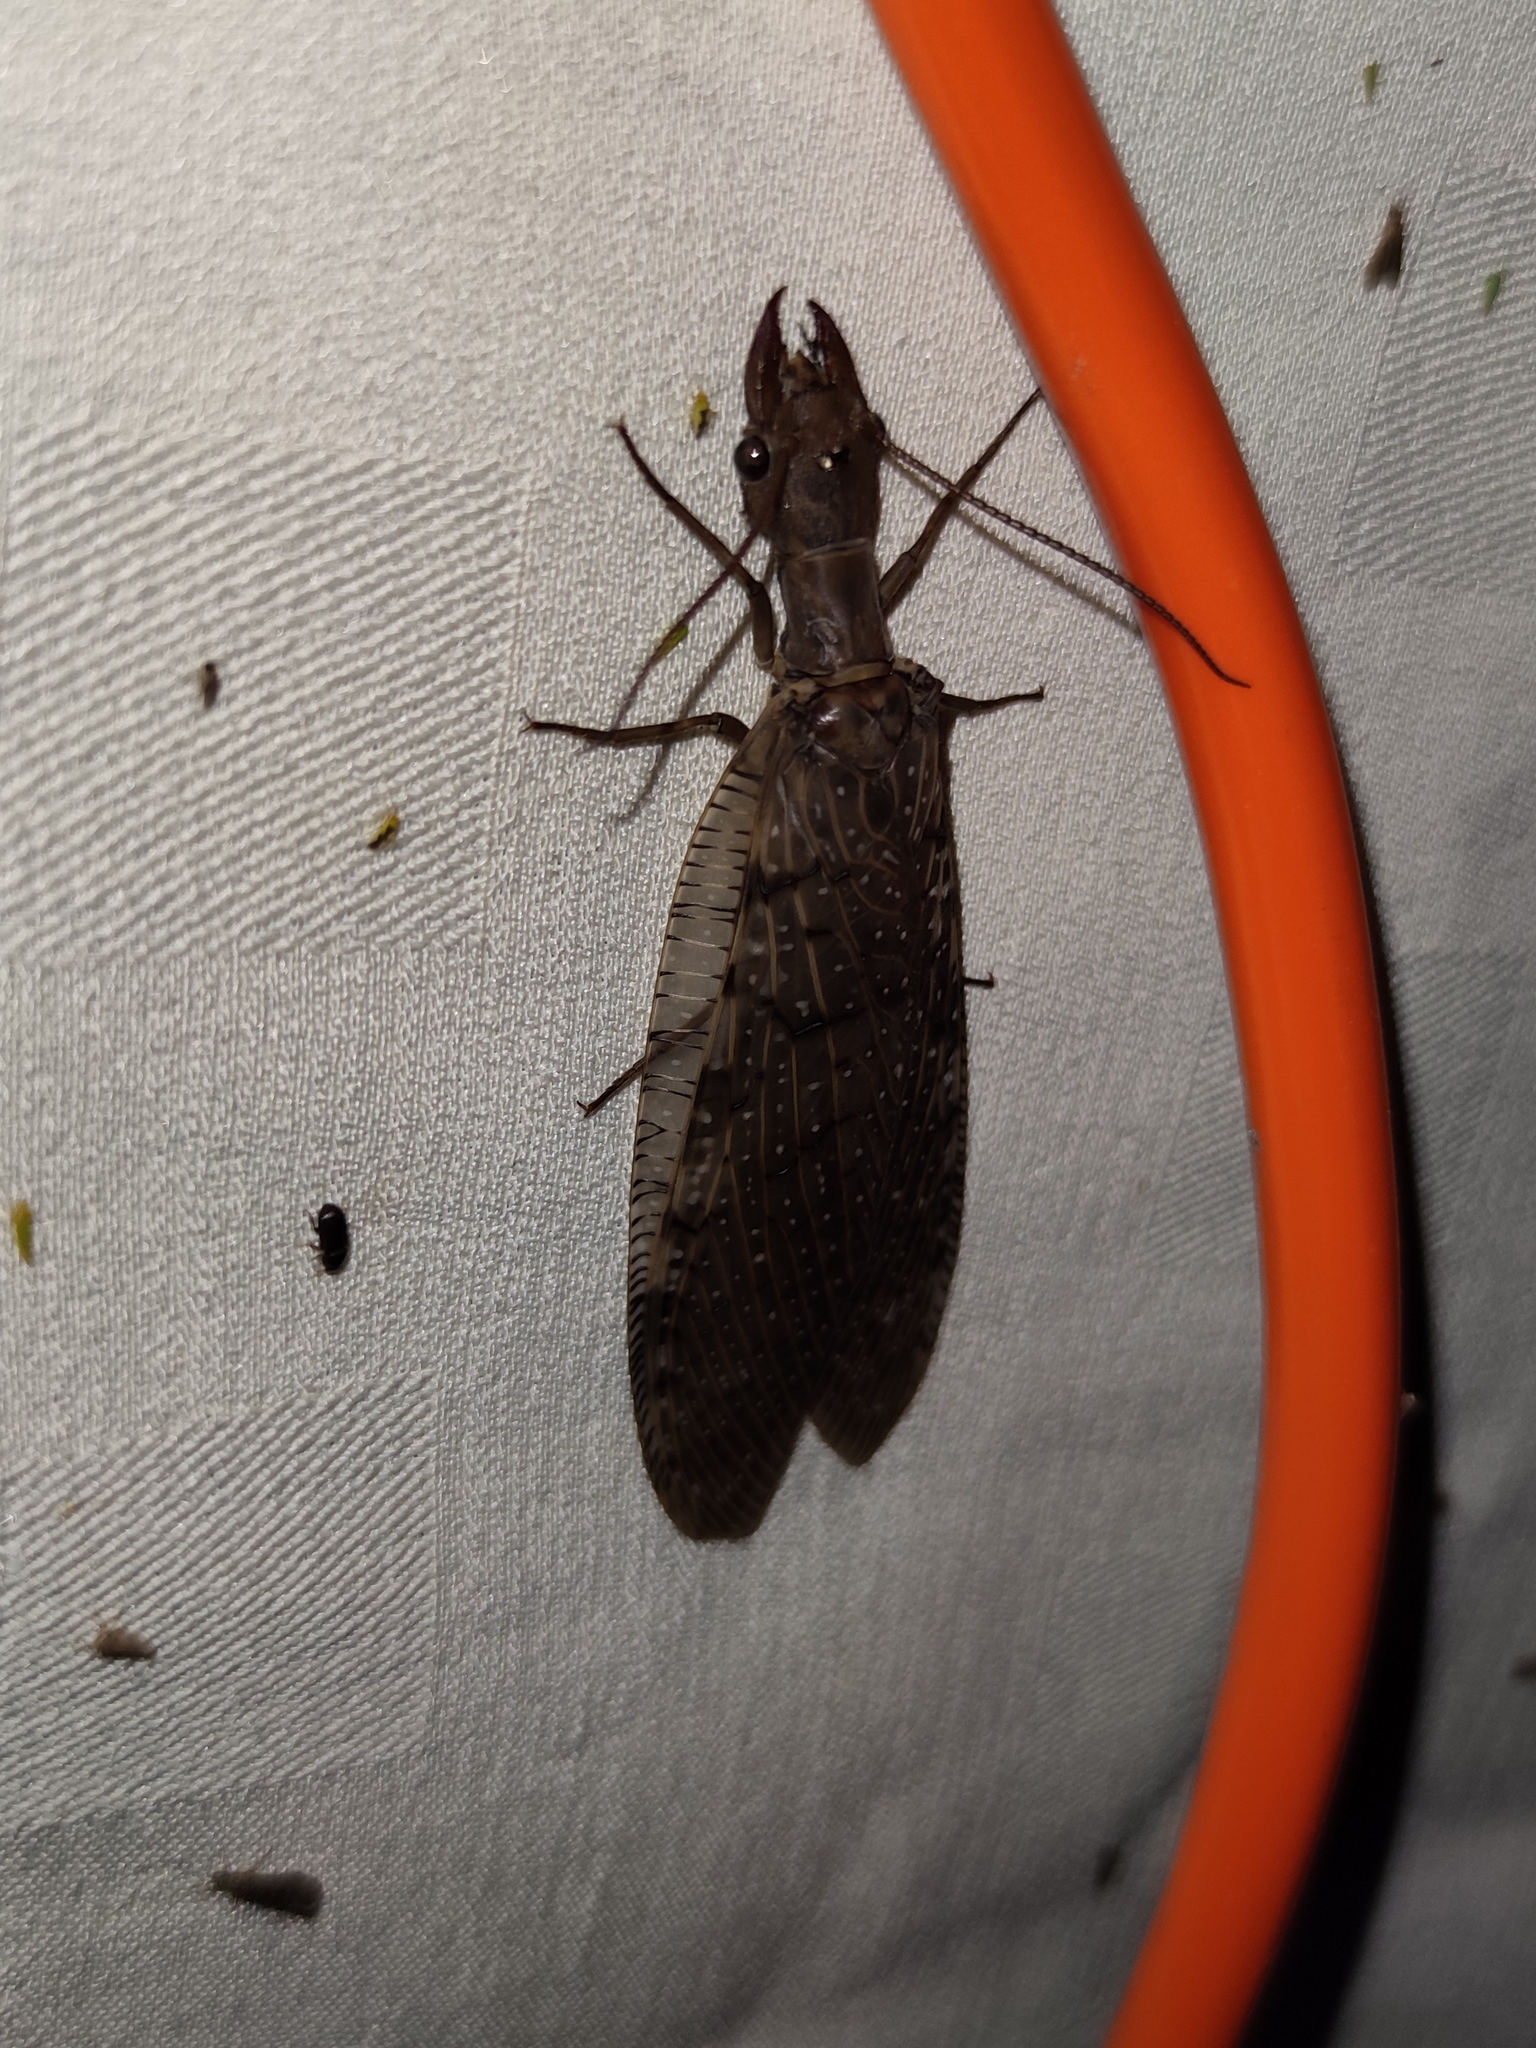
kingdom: Animalia
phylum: Arthropoda
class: Insecta
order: Megaloptera
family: Corydalidae
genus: Corydalus
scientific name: Corydalus luteus
